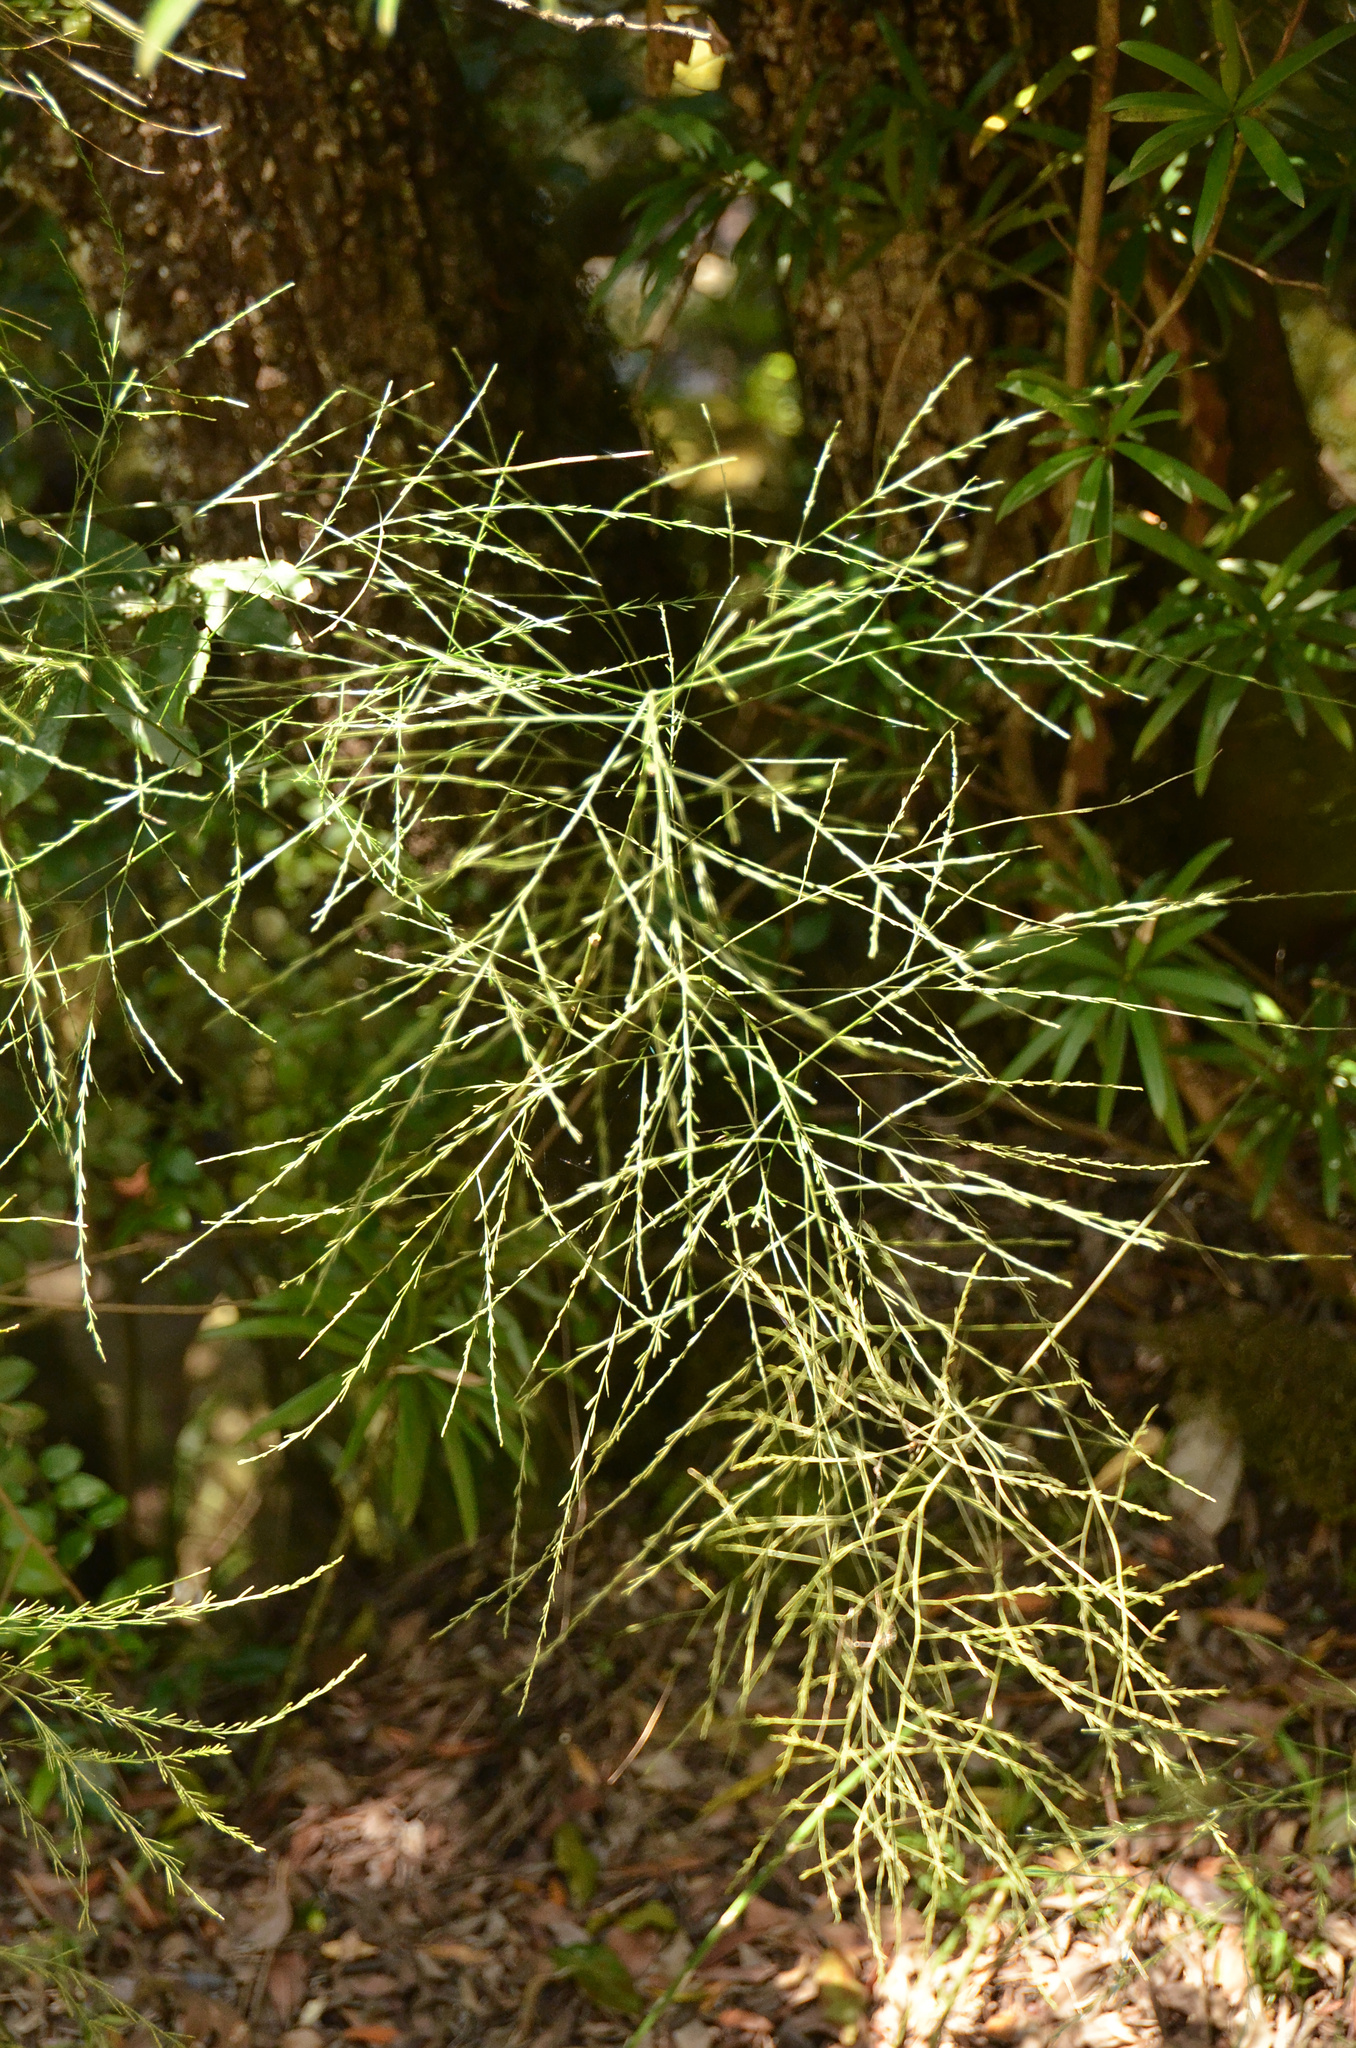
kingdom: Plantae
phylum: Tracheophyta
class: Liliopsida
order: Asparagales
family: Asparagaceae
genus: Asparagus
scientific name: Asparagus virgatus
